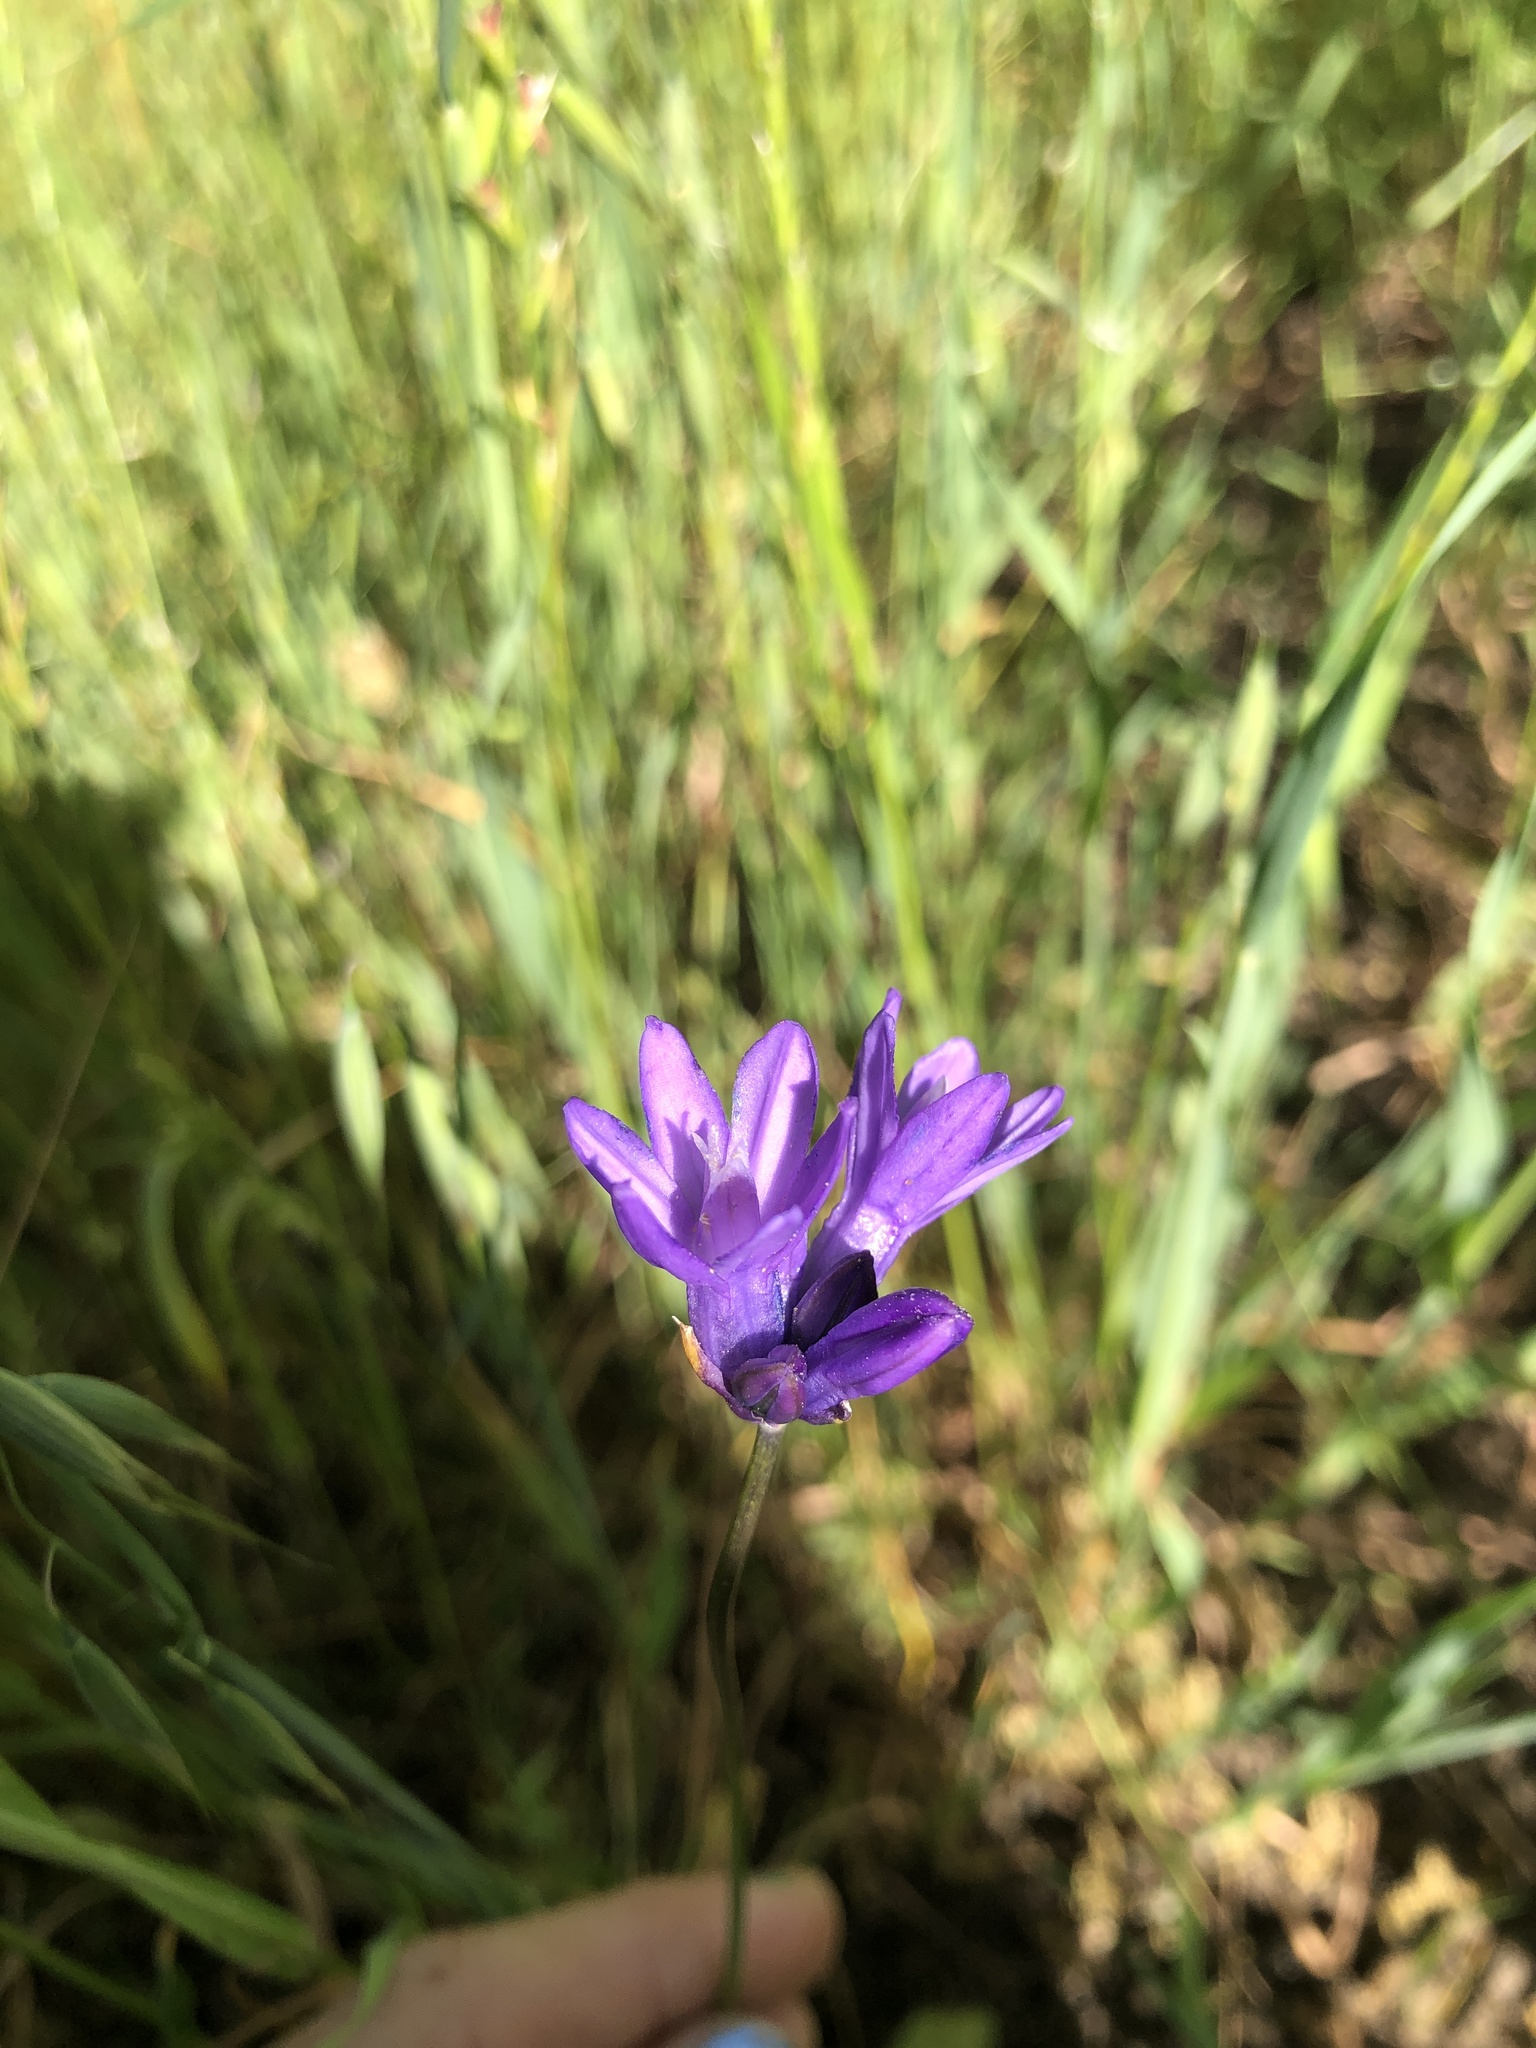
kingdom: Plantae
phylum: Tracheophyta
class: Liliopsida
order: Asparagales
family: Asparagaceae
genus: Dipterostemon
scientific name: Dipterostemon capitatus
